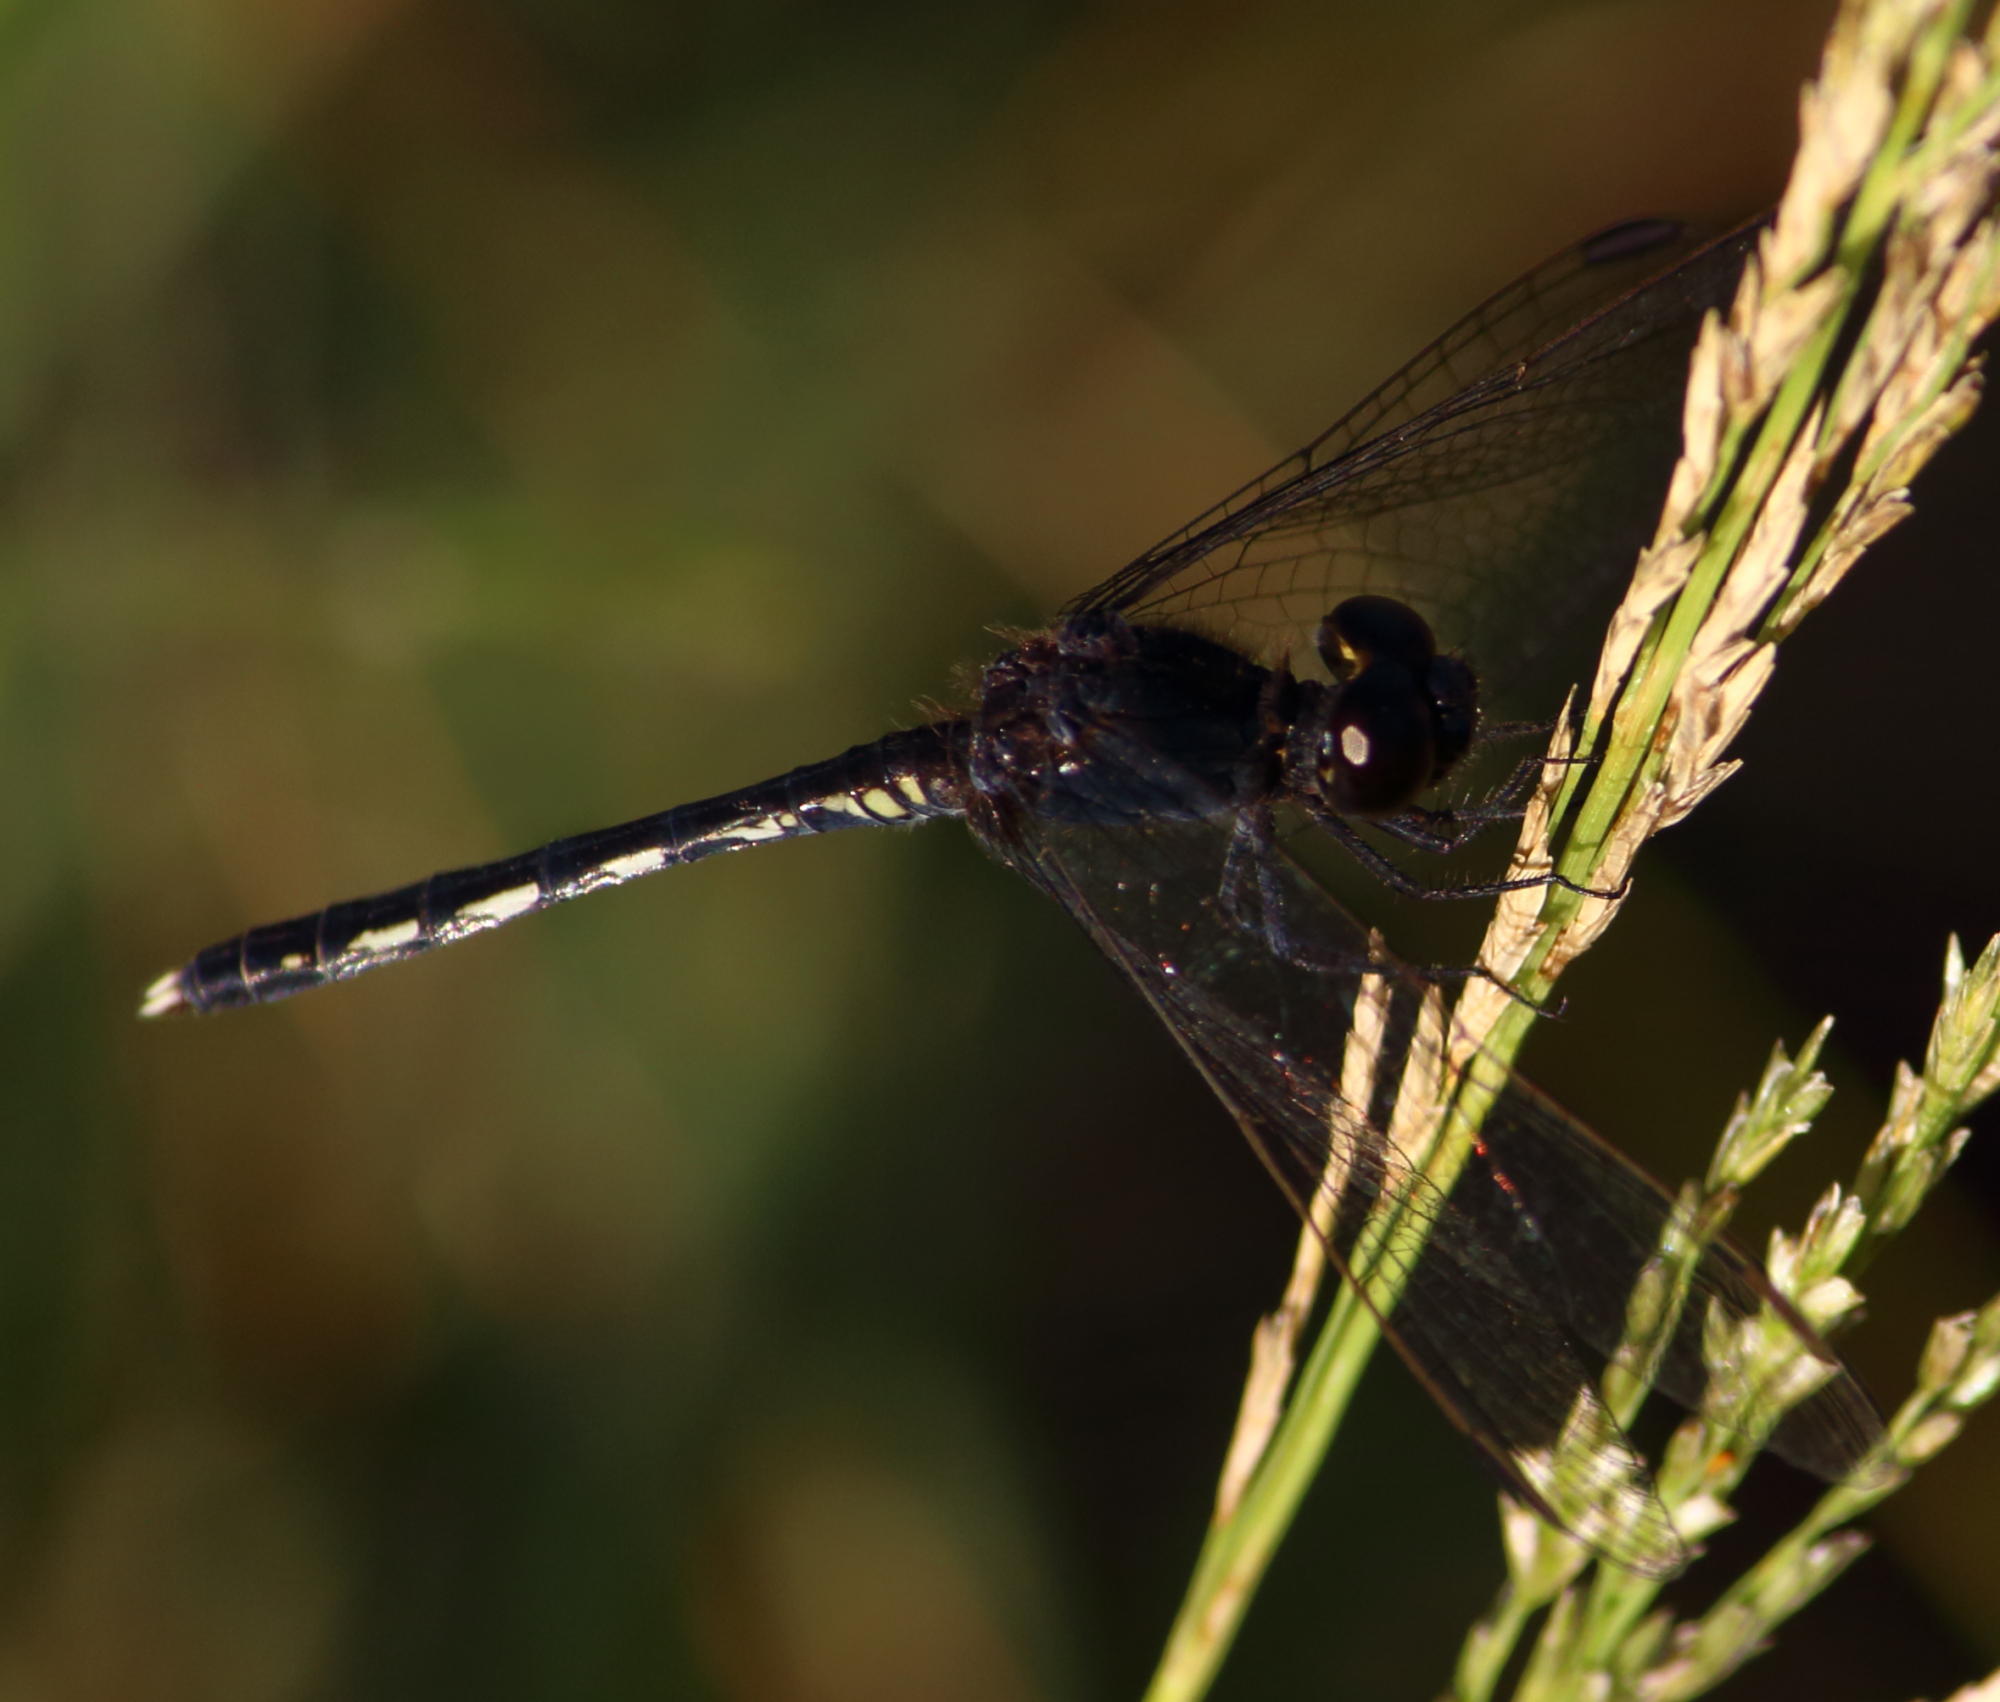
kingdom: Animalia
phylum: Arthropoda
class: Insecta
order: Odonata
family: Libellulidae
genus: Diplacodes
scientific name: Diplacodes lefebvrii
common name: Black percher
